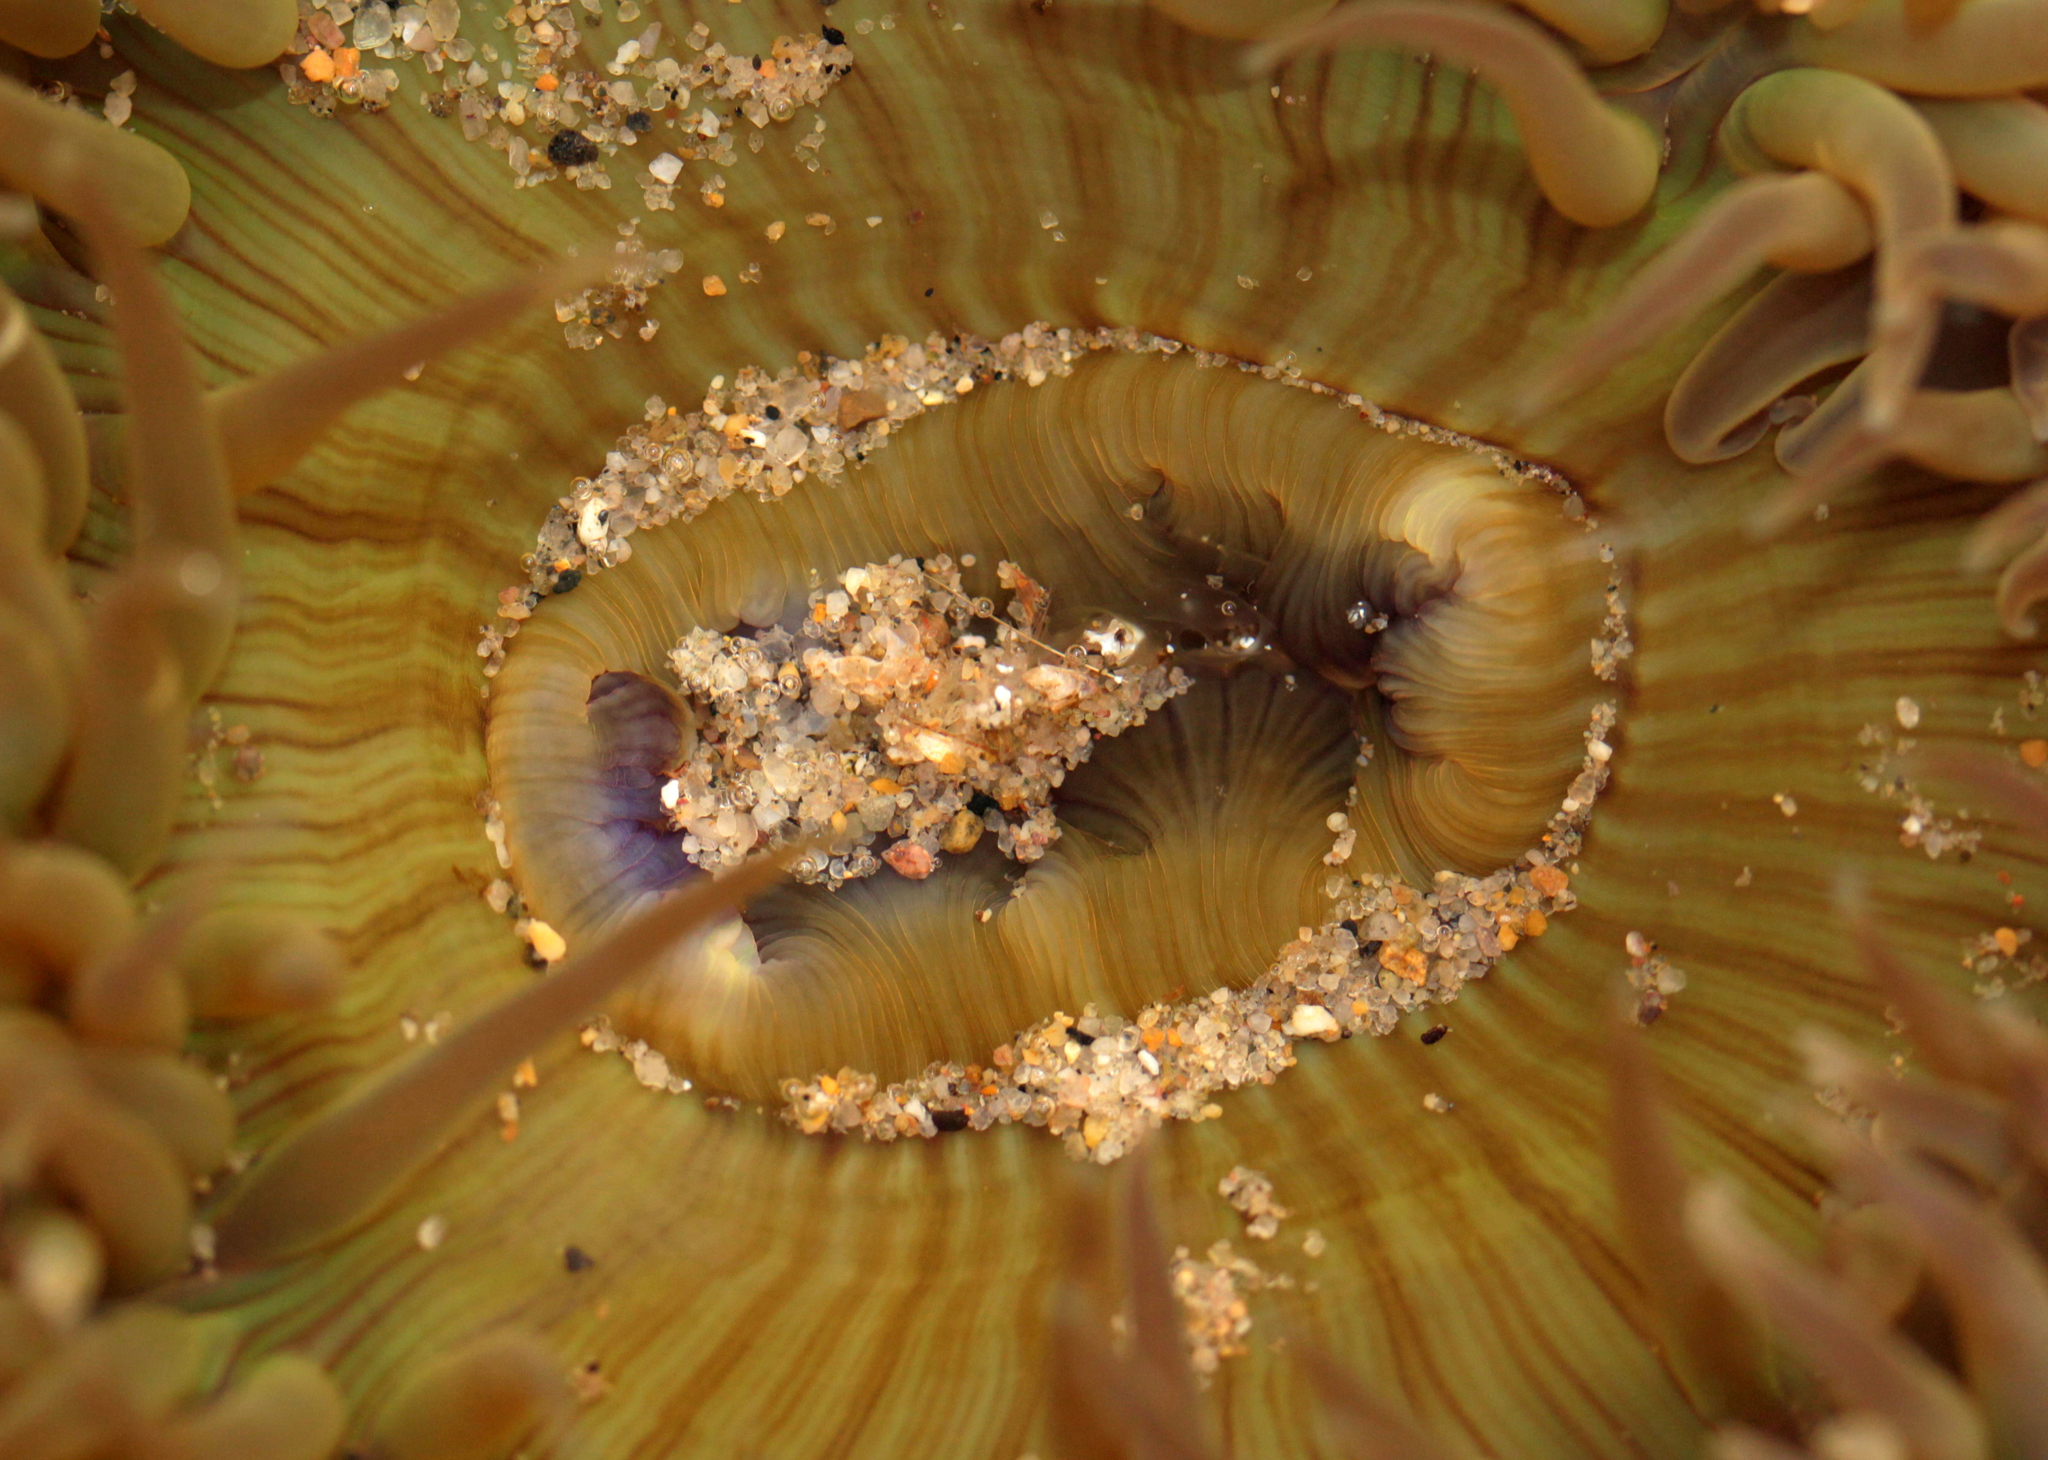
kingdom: Animalia
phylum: Cnidaria
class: Anthozoa
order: Actiniaria
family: Actiniidae
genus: Anthopleura
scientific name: Anthopleura sola
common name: Sun anemone
